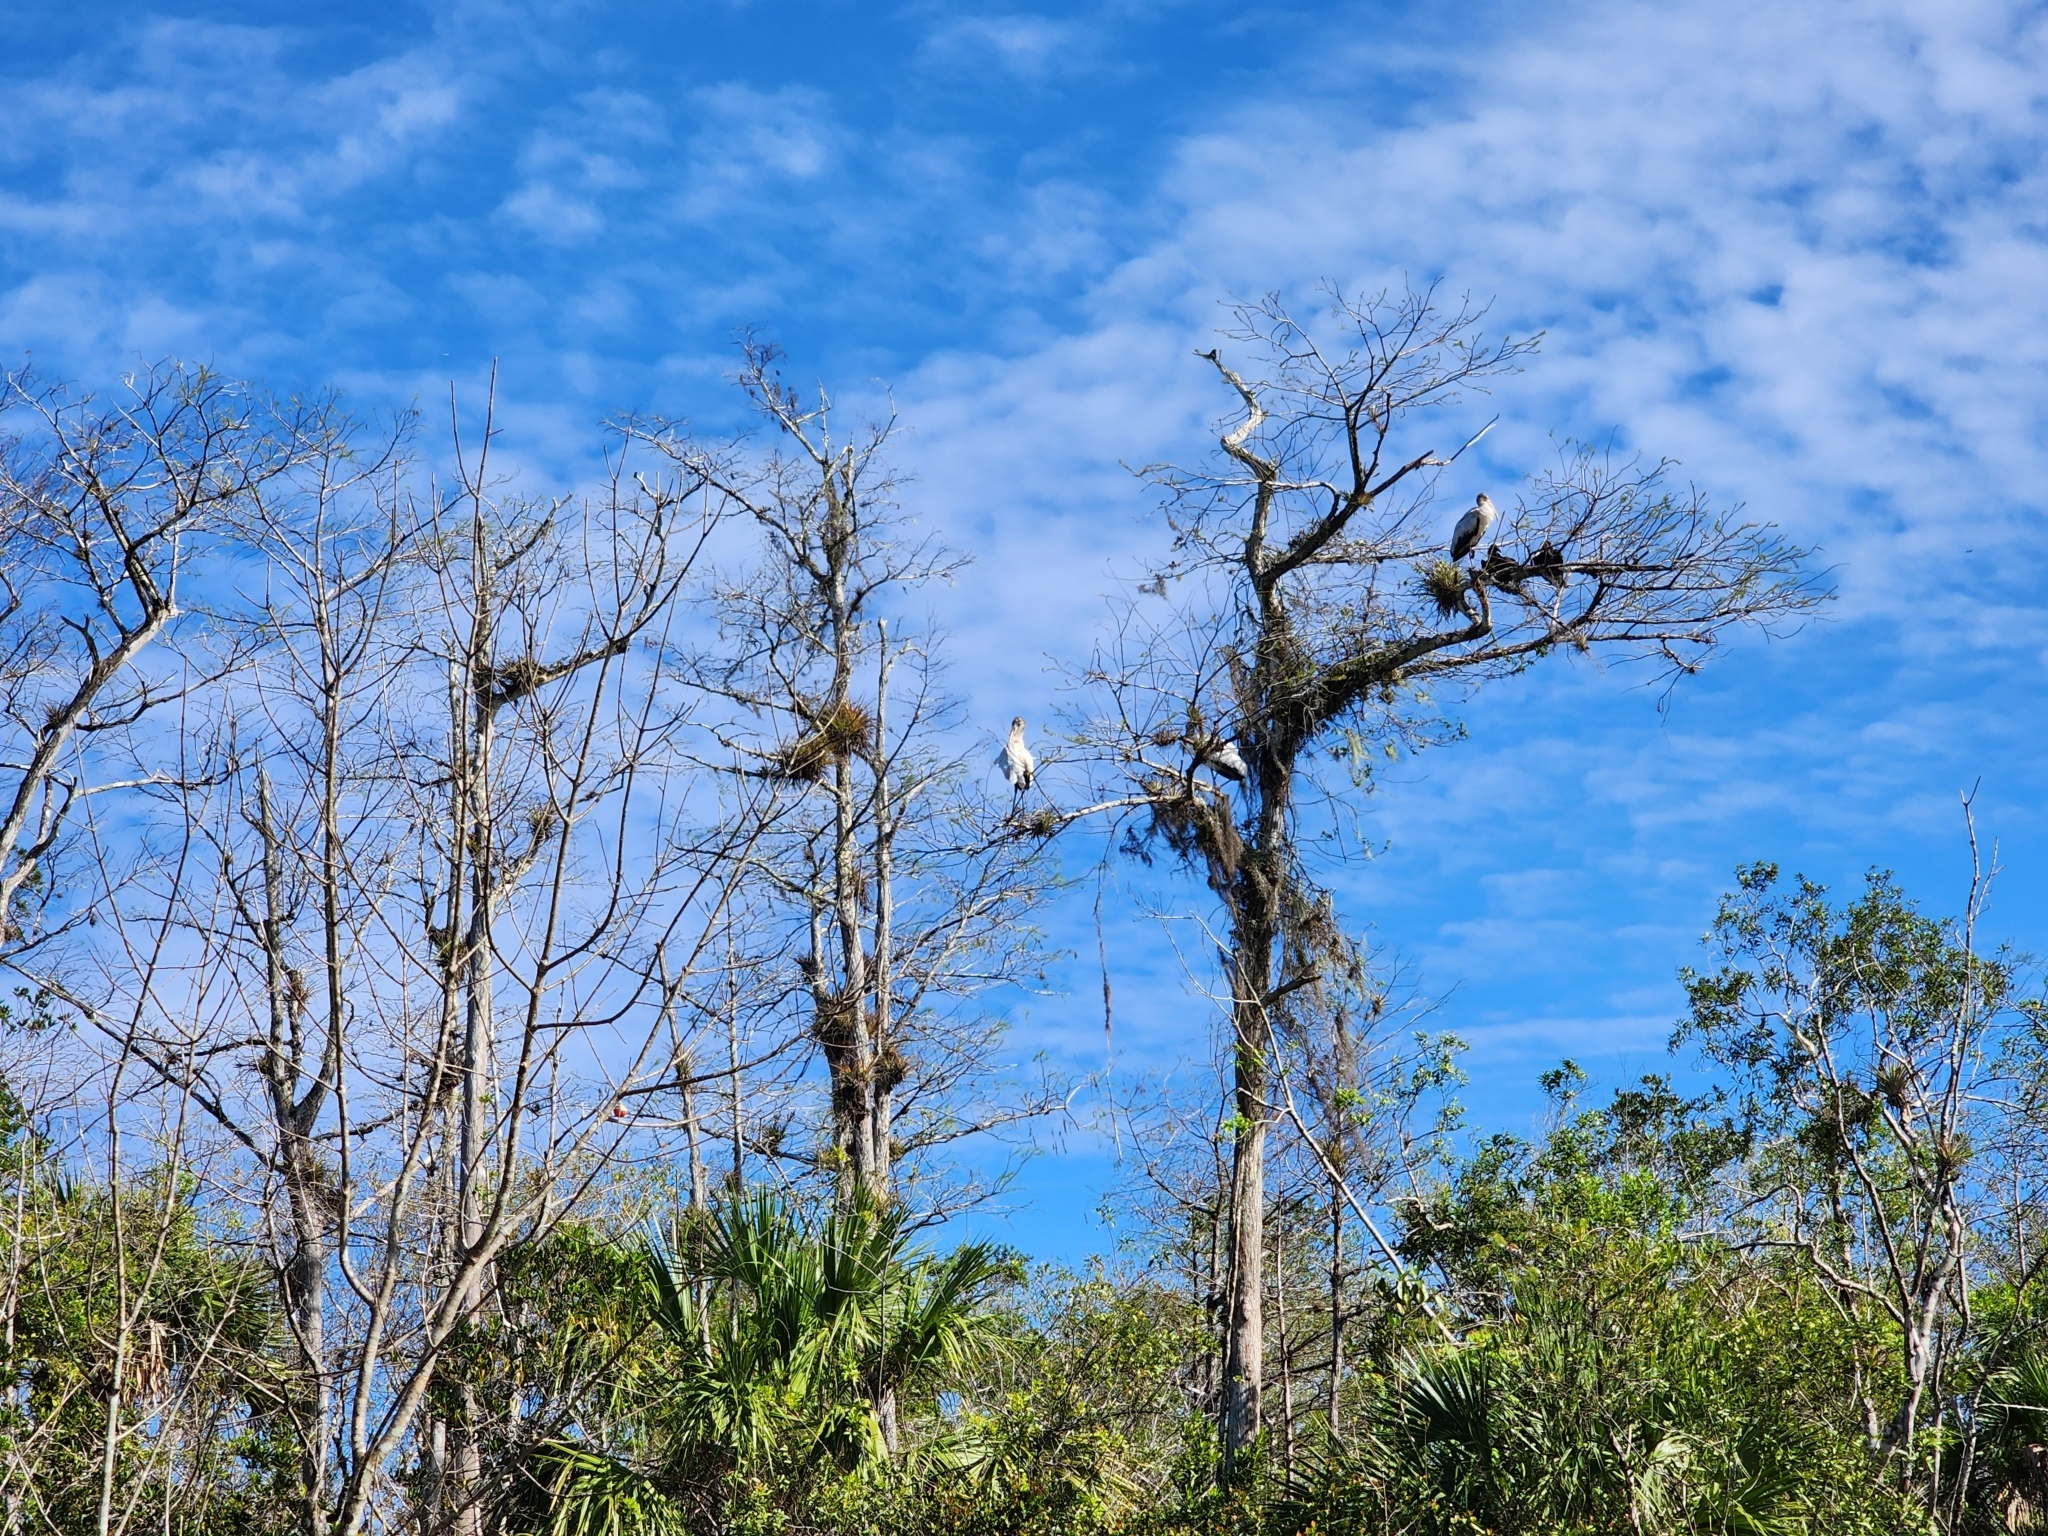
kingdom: Animalia
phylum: Chordata
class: Aves
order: Ciconiiformes
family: Ciconiidae
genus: Mycteria
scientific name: Mycteria americana
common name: Wood stork
